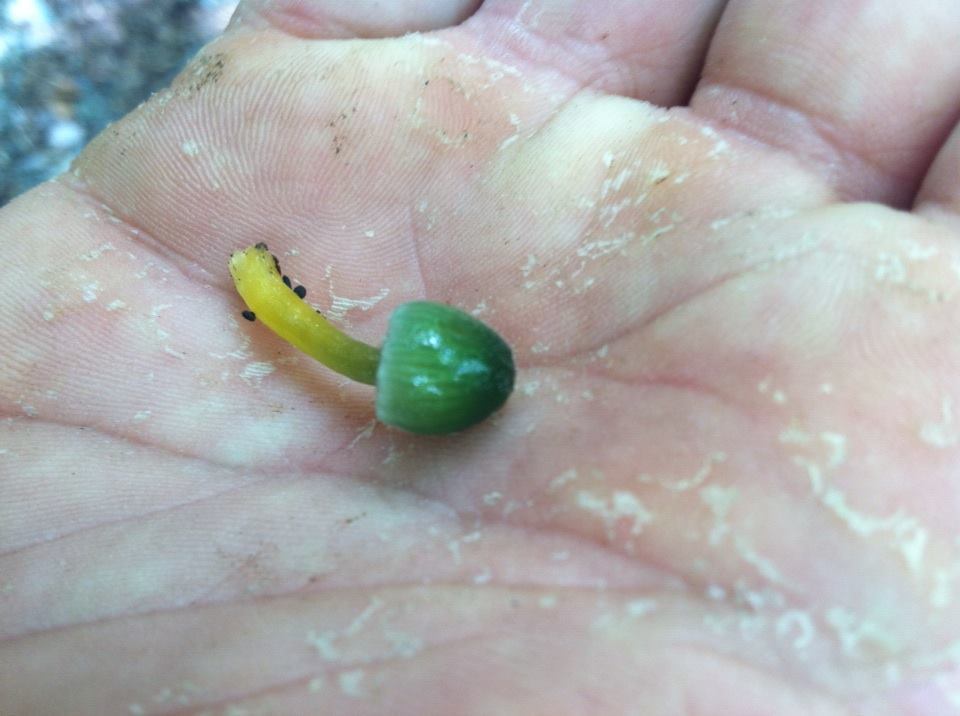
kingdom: Fungi
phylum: Basidiomycota
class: Agaricomycetes
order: Agaricales
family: Hygrophoraceae
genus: Gliophorus
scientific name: Gliophorus psittacinus
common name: Parrot wax-cap
